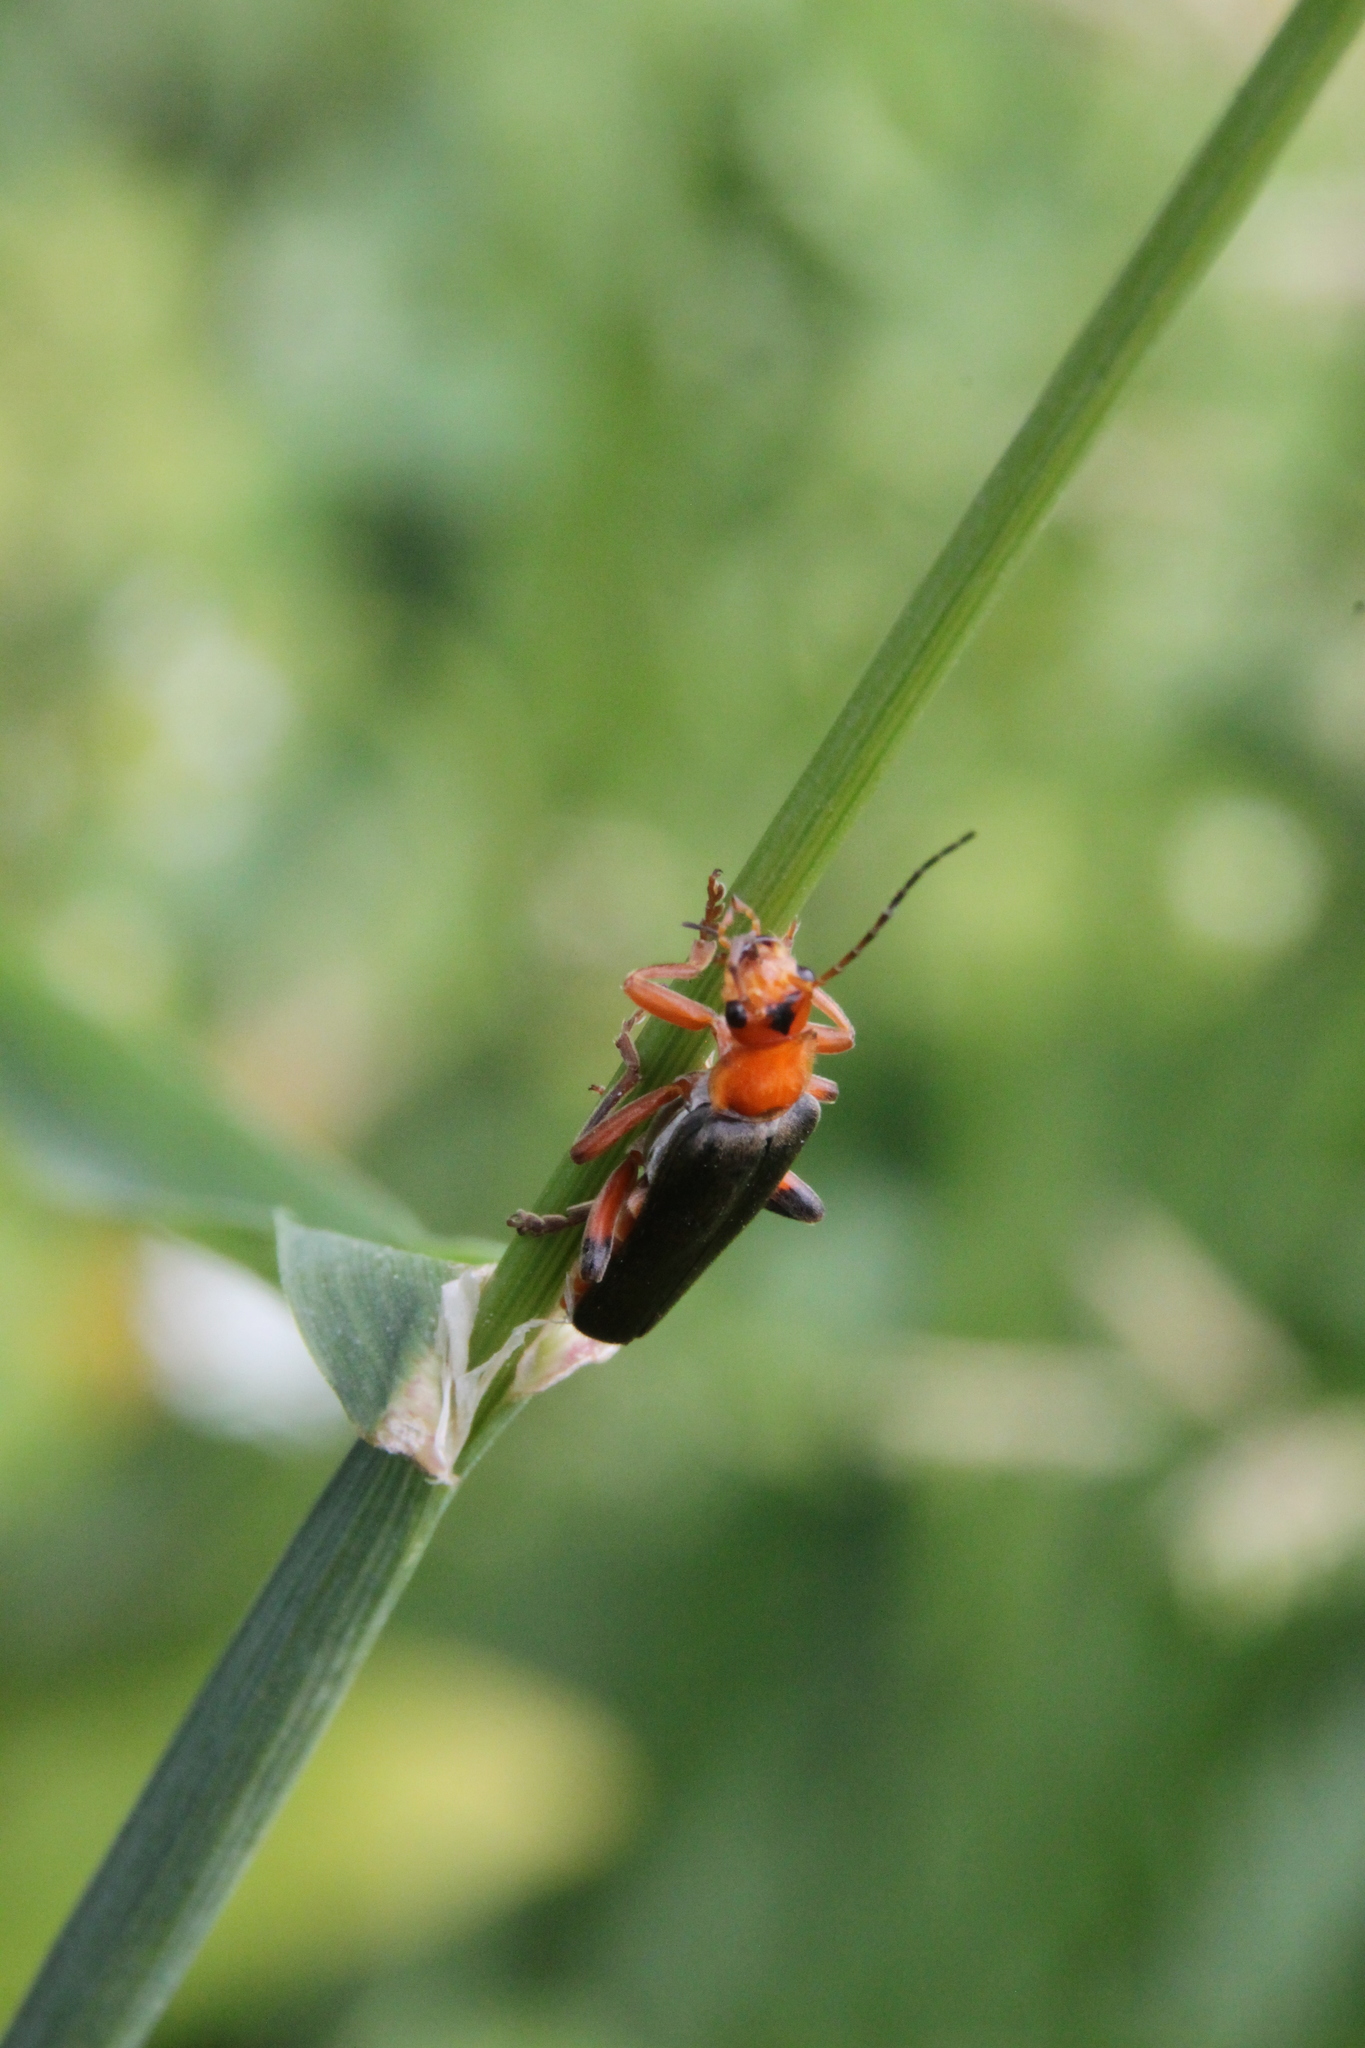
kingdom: Animalia
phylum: Arthropoda
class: Insecta
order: Coleoptera
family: Cantharidae
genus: Cantharis
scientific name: Cantharis livida
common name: Livid soldier beetle
